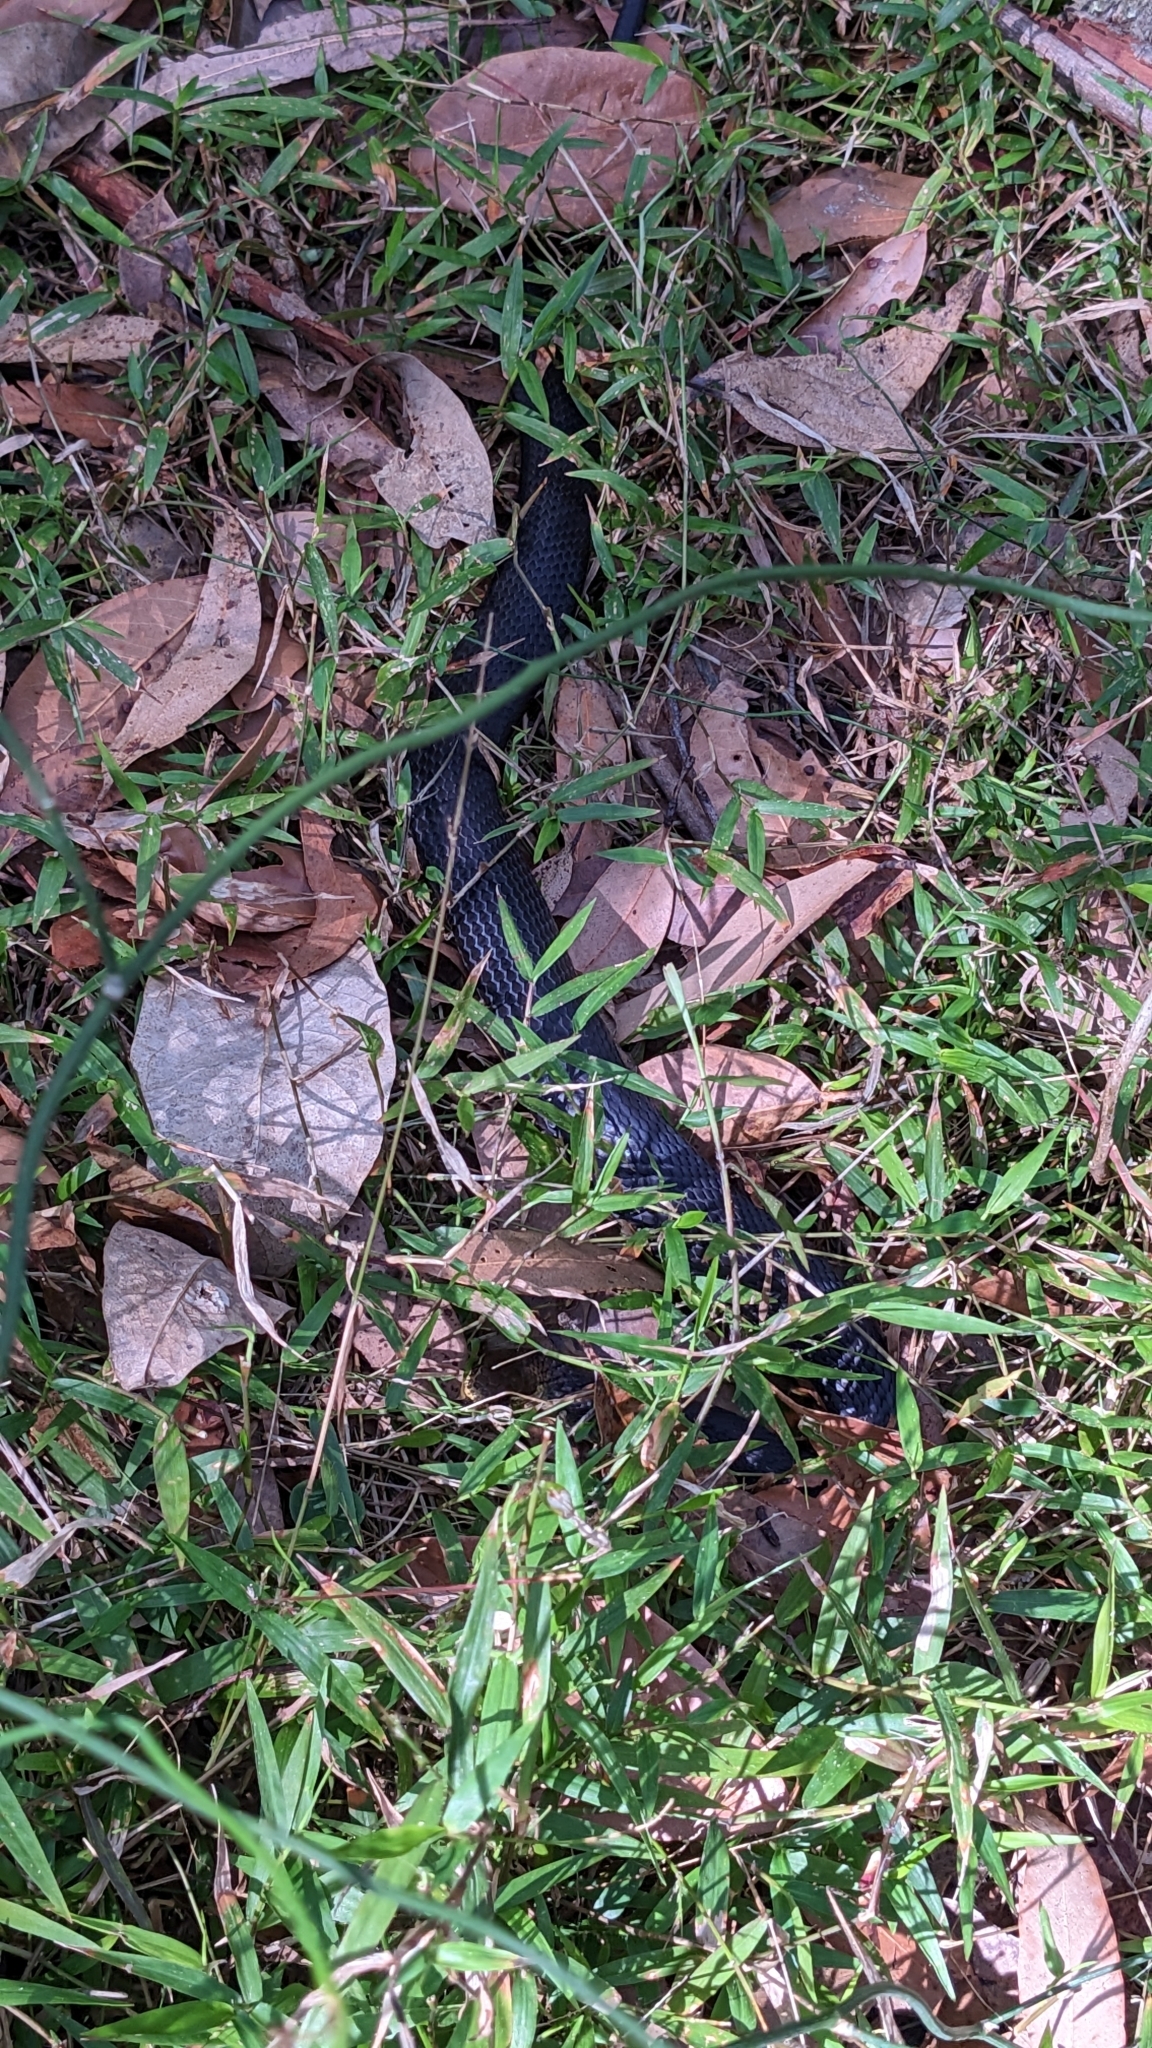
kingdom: Animalia
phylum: Chordata
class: Squamata
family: Elapidae
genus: Hemiaspis
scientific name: Hemiaspis signata
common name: Black-bellied swamp snake
